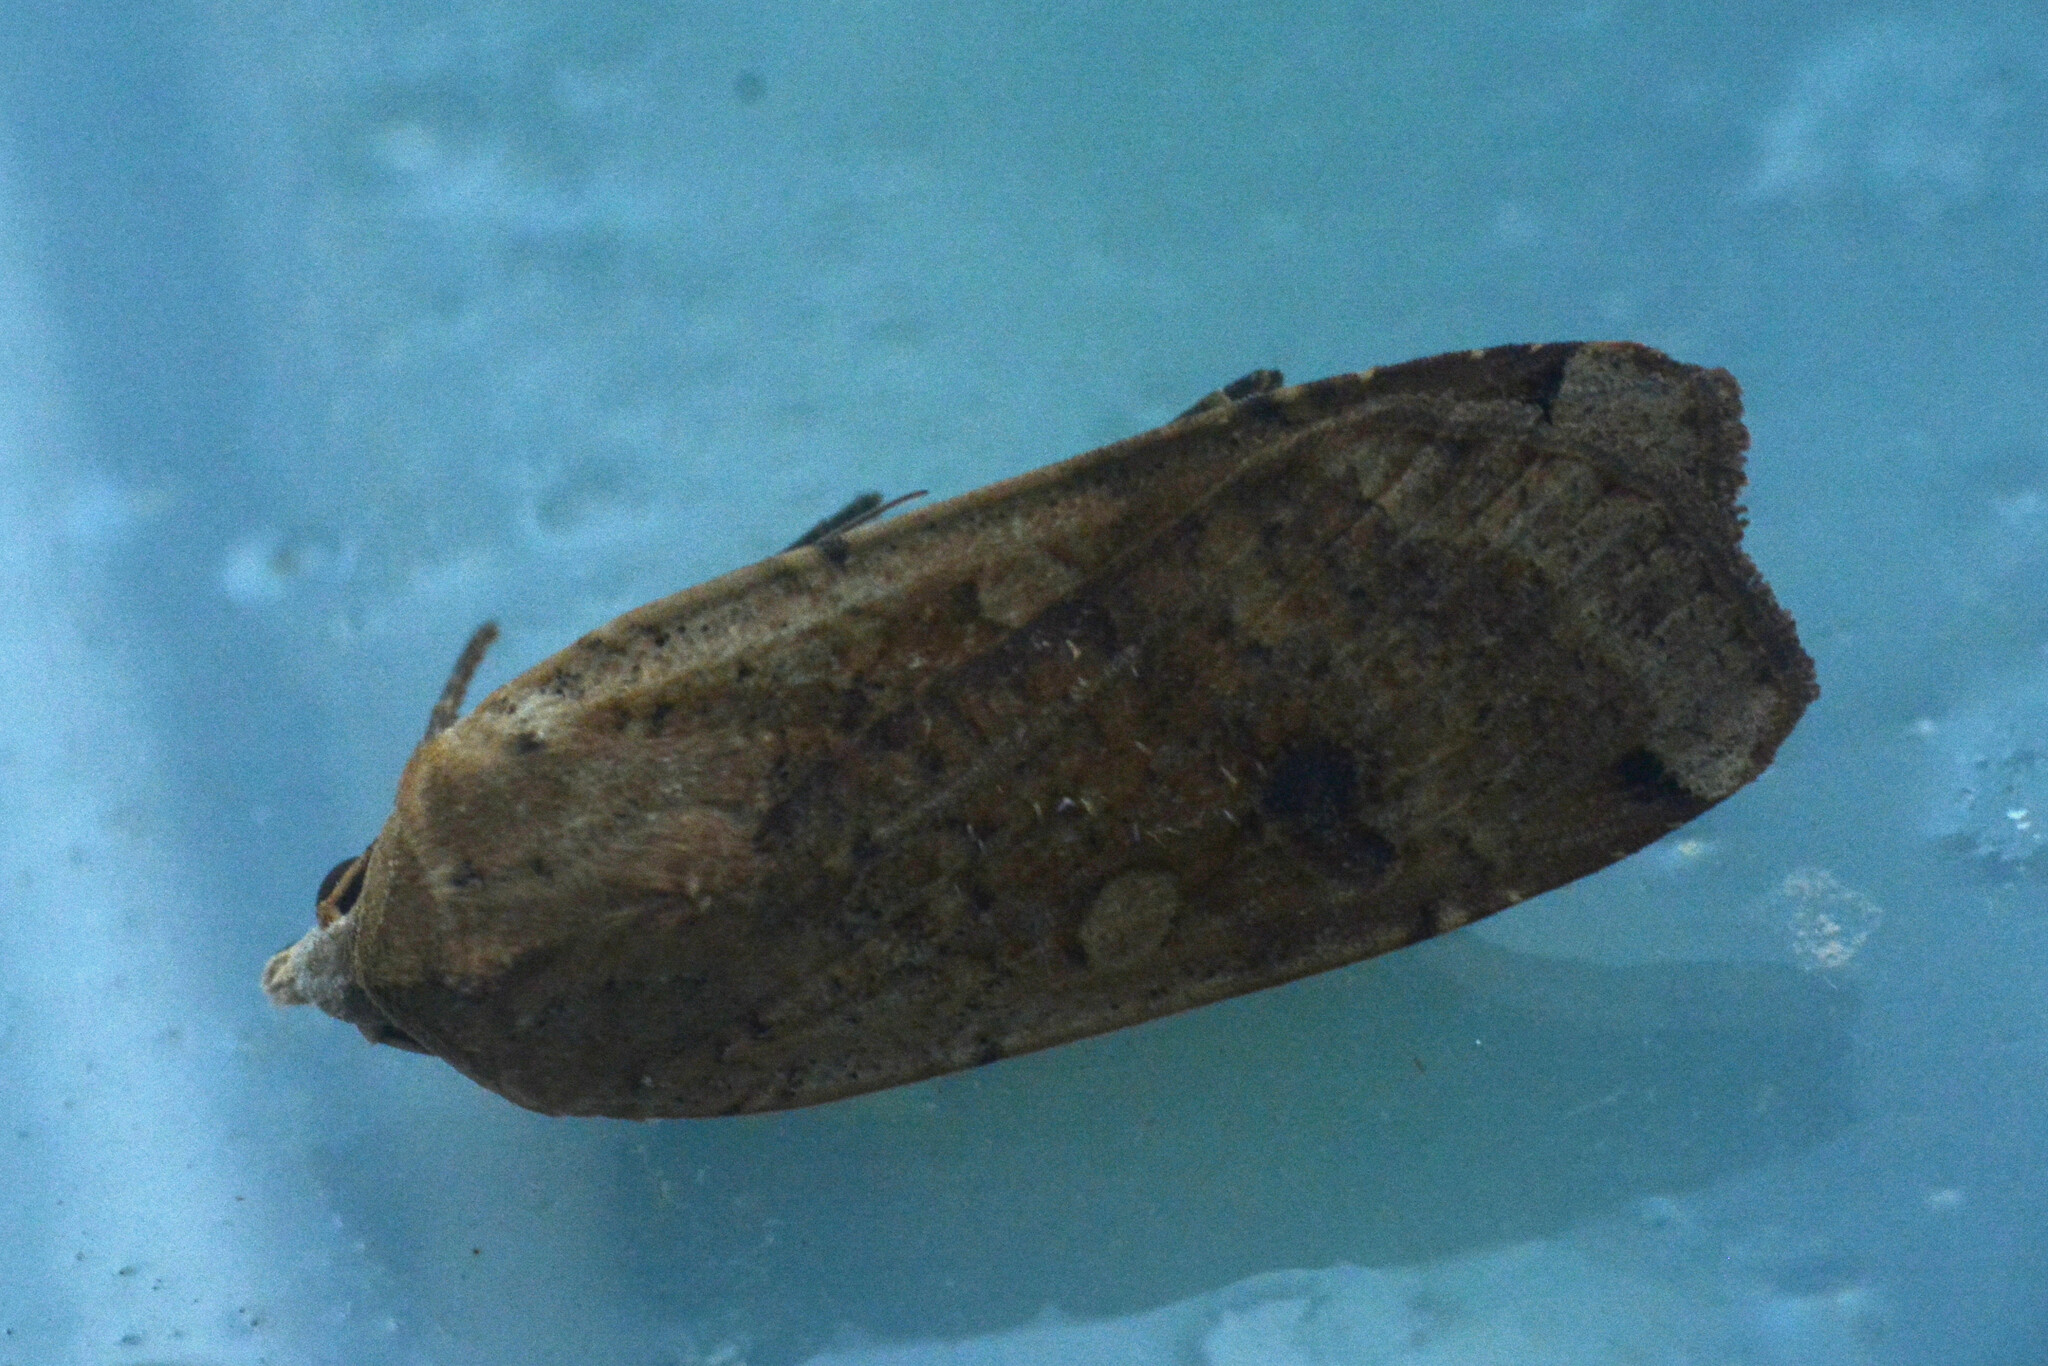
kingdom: Animalia
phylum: Arthropoda
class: Insecta
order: Lepidoptera
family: Noctuidae
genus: Noctua
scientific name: Noctua pronuba
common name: Large yellow underwing
